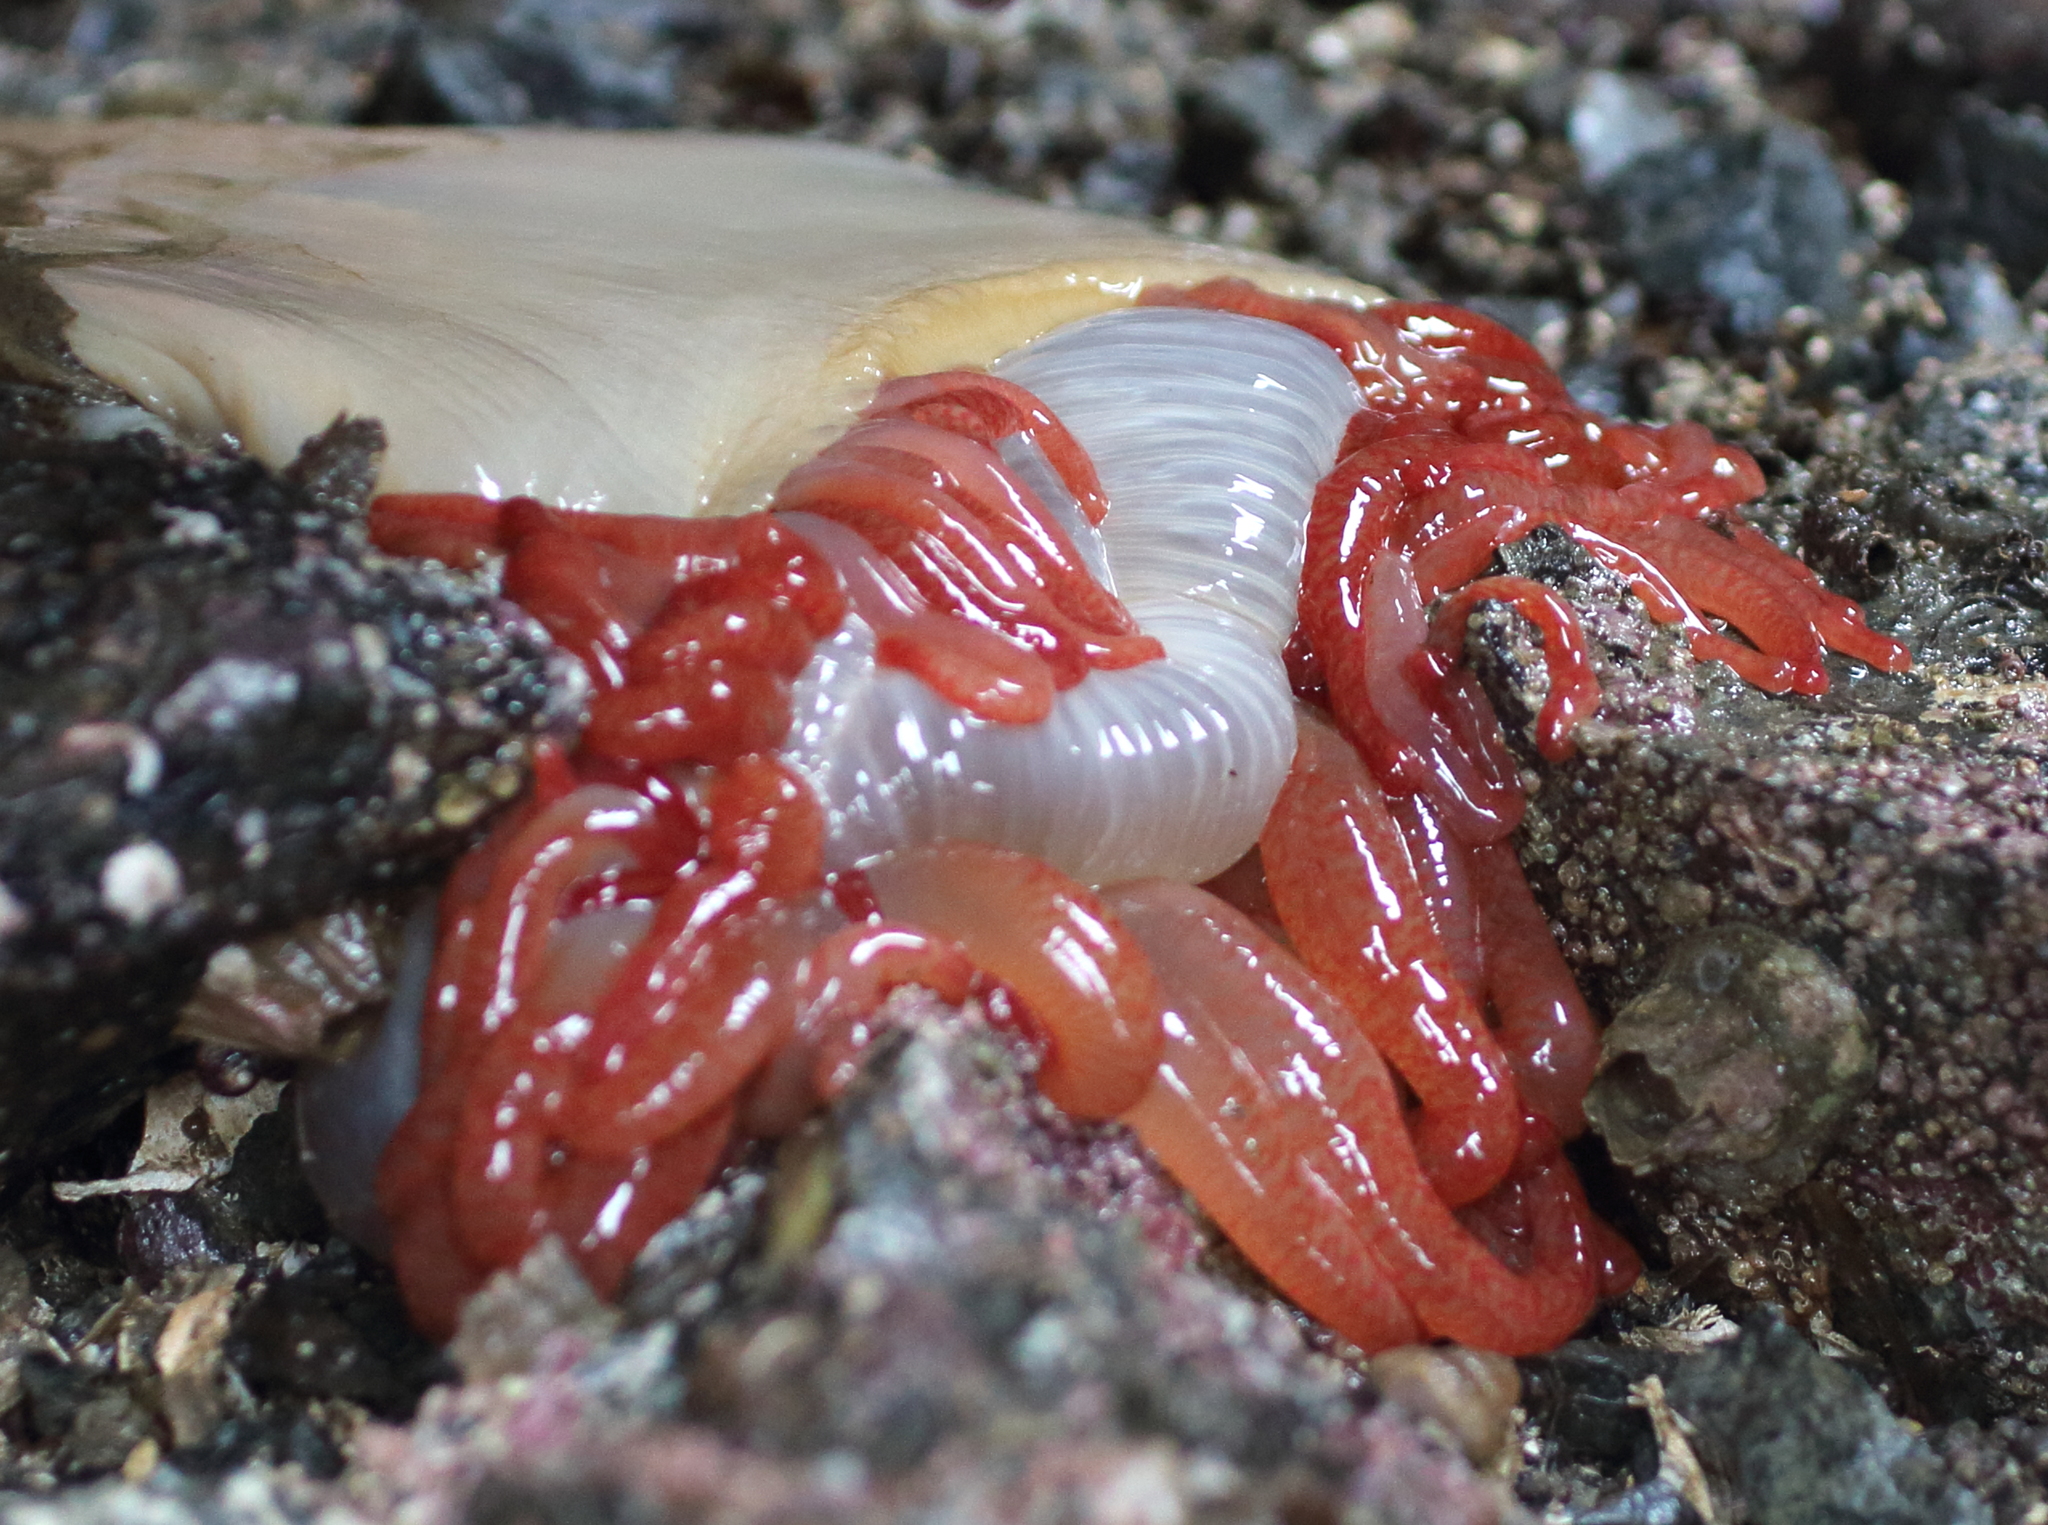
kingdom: Animalia
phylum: Cnidaria
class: Anthozoa
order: Actiniaria
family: Actiniidae
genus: Cribrinopsis
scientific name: Cribrinopsis fernaldi
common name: Chevron-tentacle anemone
